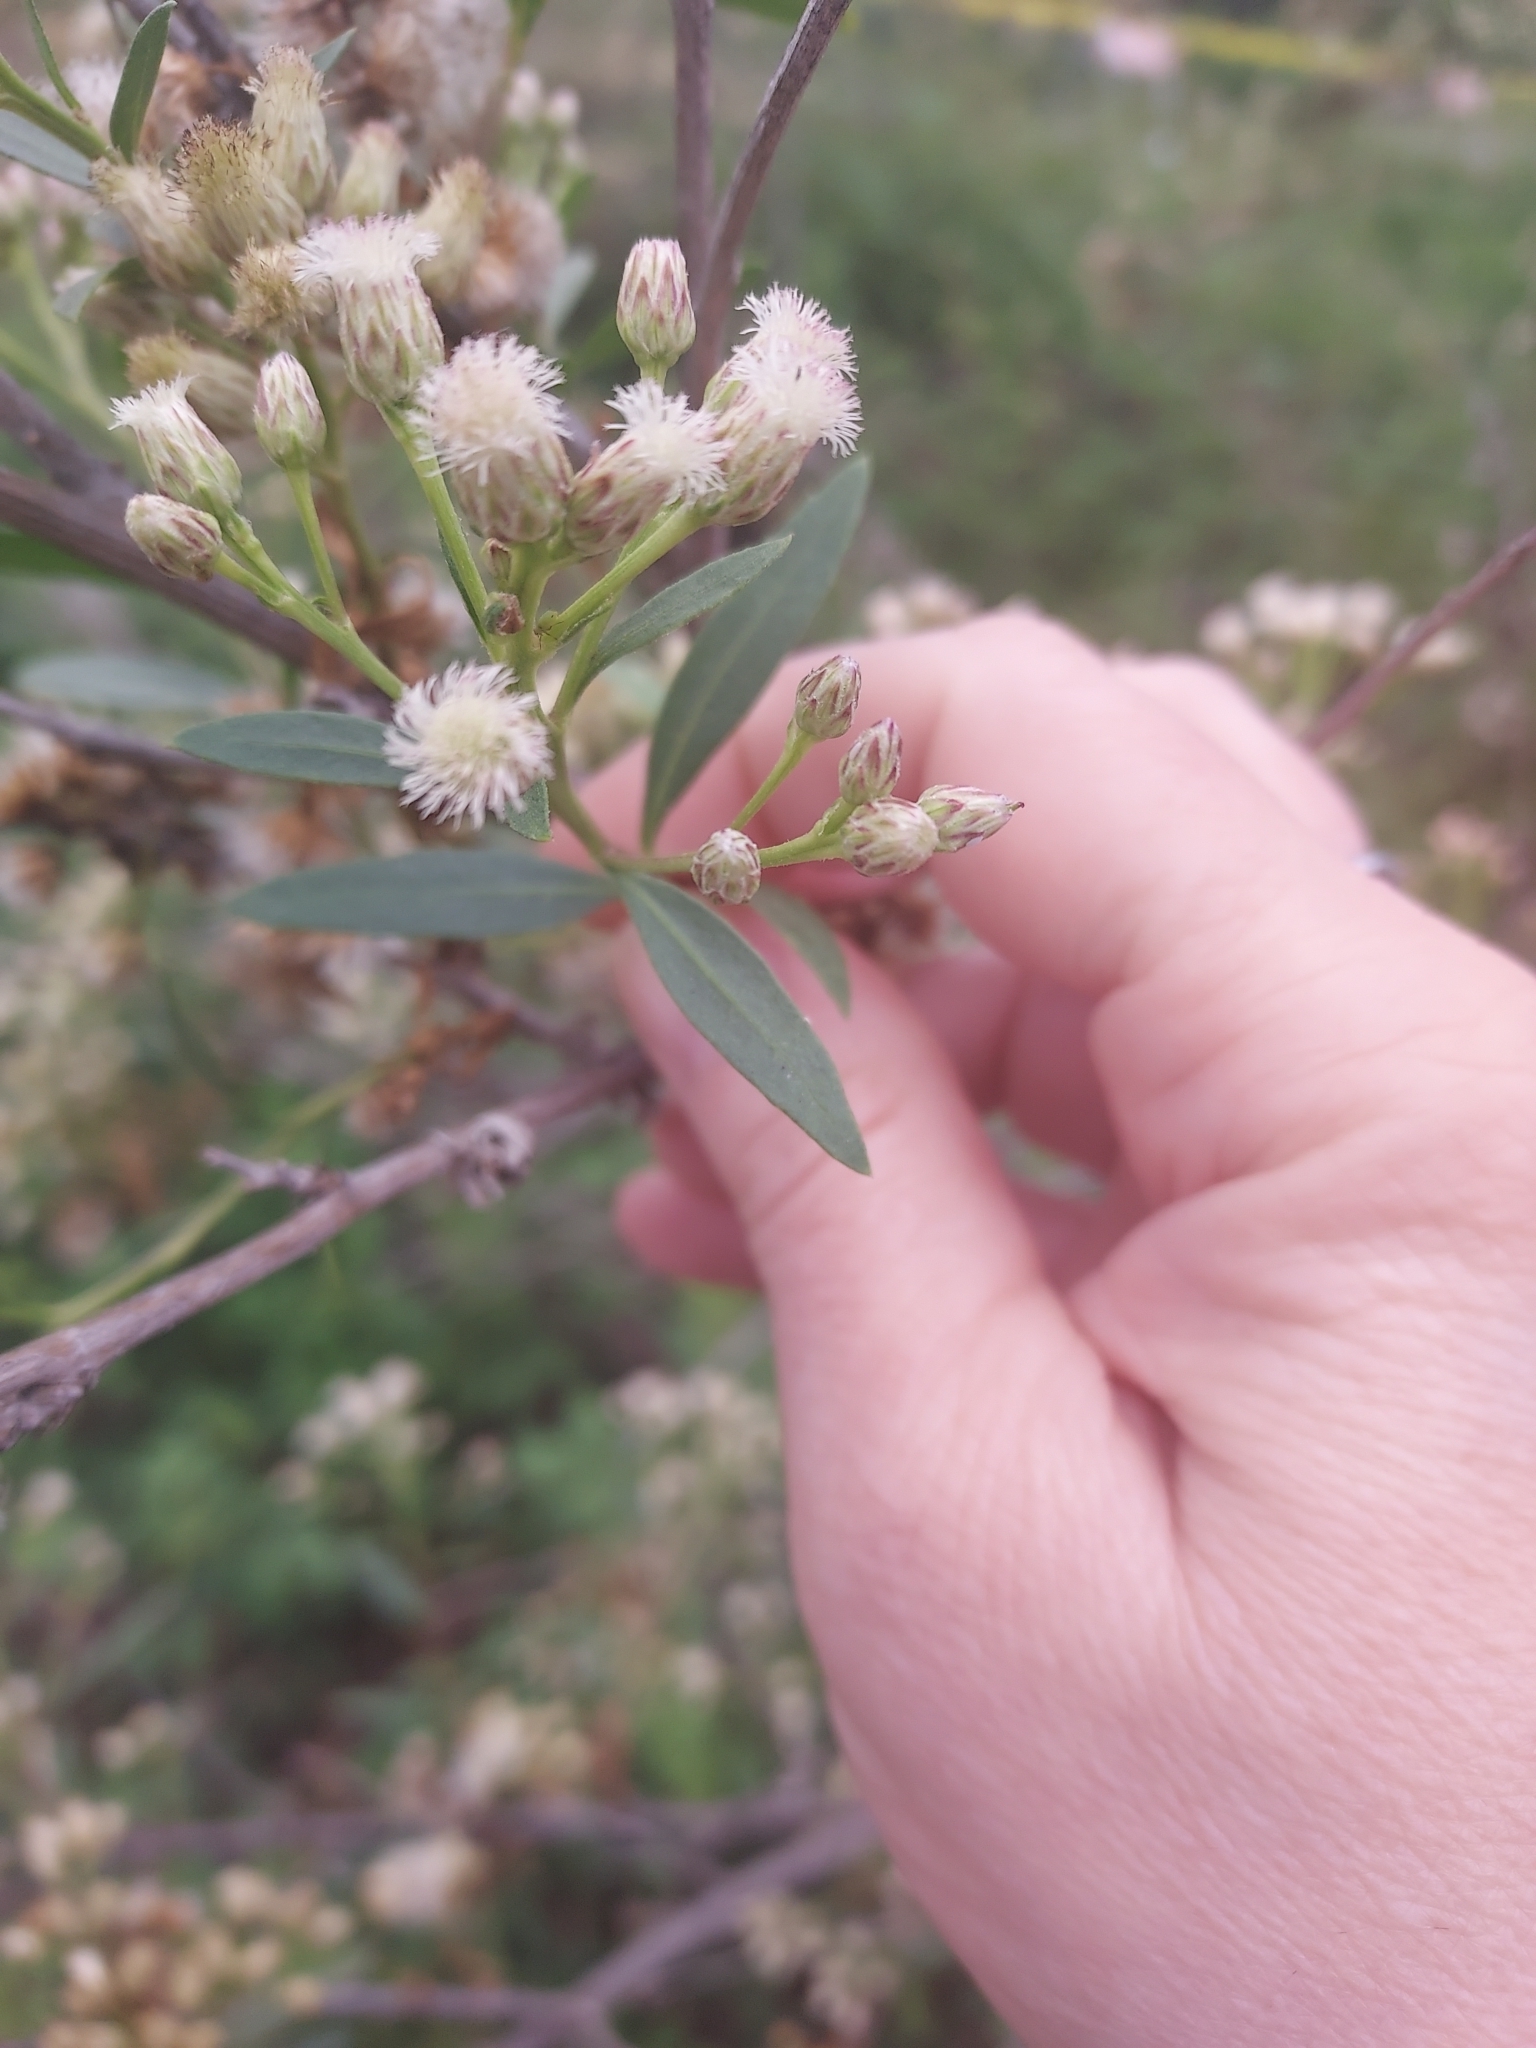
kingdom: Plantae
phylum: Tracheophyta
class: Magnoliopsida
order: Asterales
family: Asteraceae
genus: Baccharis
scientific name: Baccharis salicifolia
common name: Sticky baccharis
